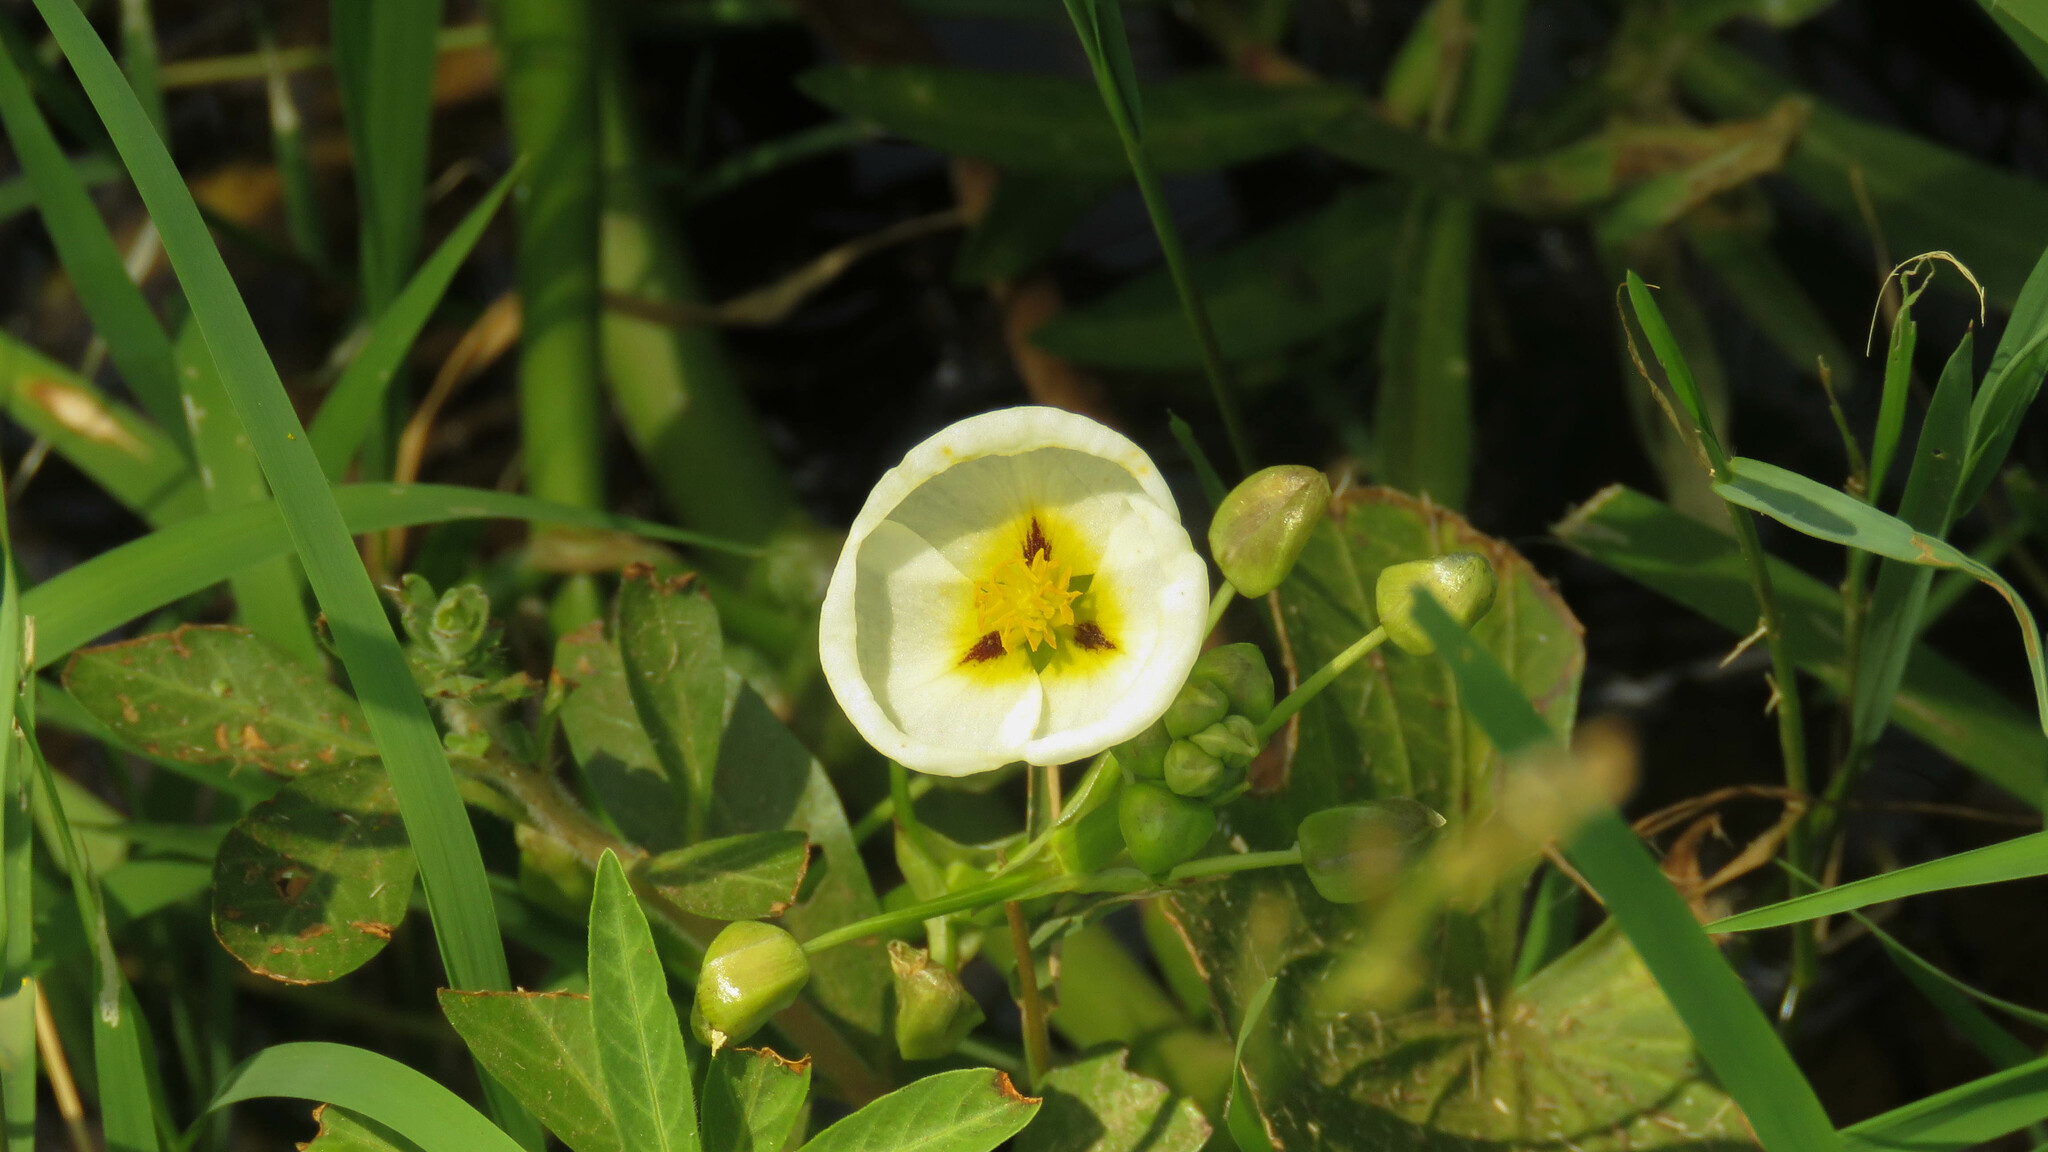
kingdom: Plantae
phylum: Tracheophyta
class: Liliopsida
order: Alismatales
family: Alismataceae
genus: Sagittaria
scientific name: Sagittaria montevidensis
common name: Giant arrowhead
